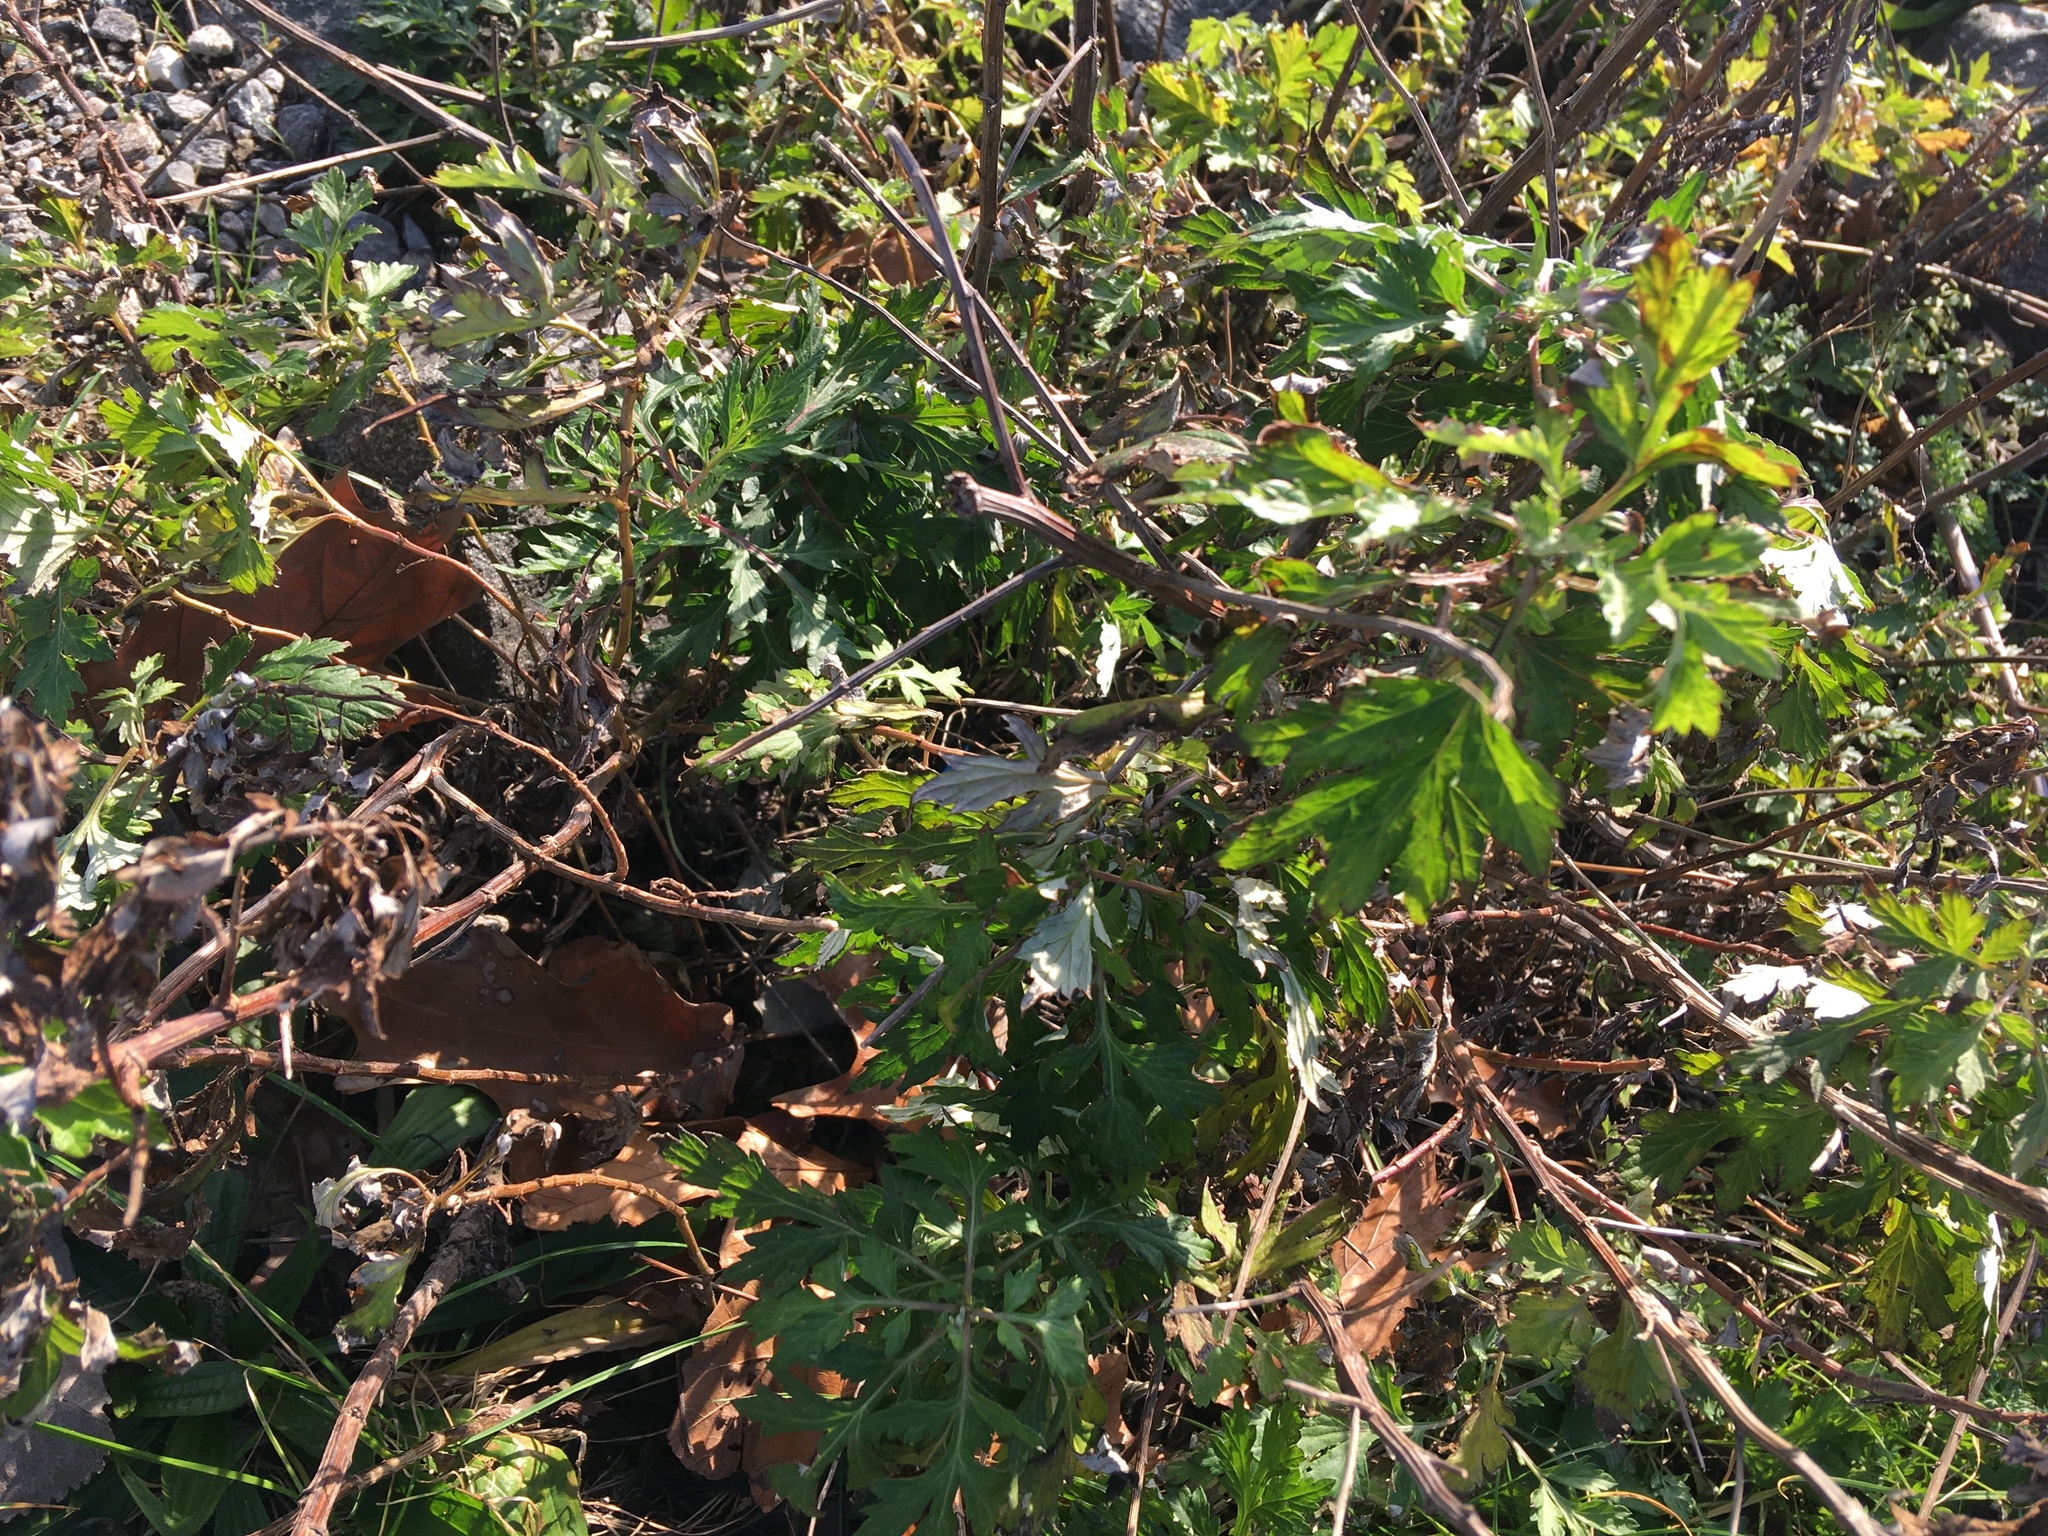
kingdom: Plantae
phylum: Tracheophyta
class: Magnoliopsida
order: Asterales
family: Asteraceae
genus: Artemisia
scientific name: Artemisia vulgaris
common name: Mugwort
